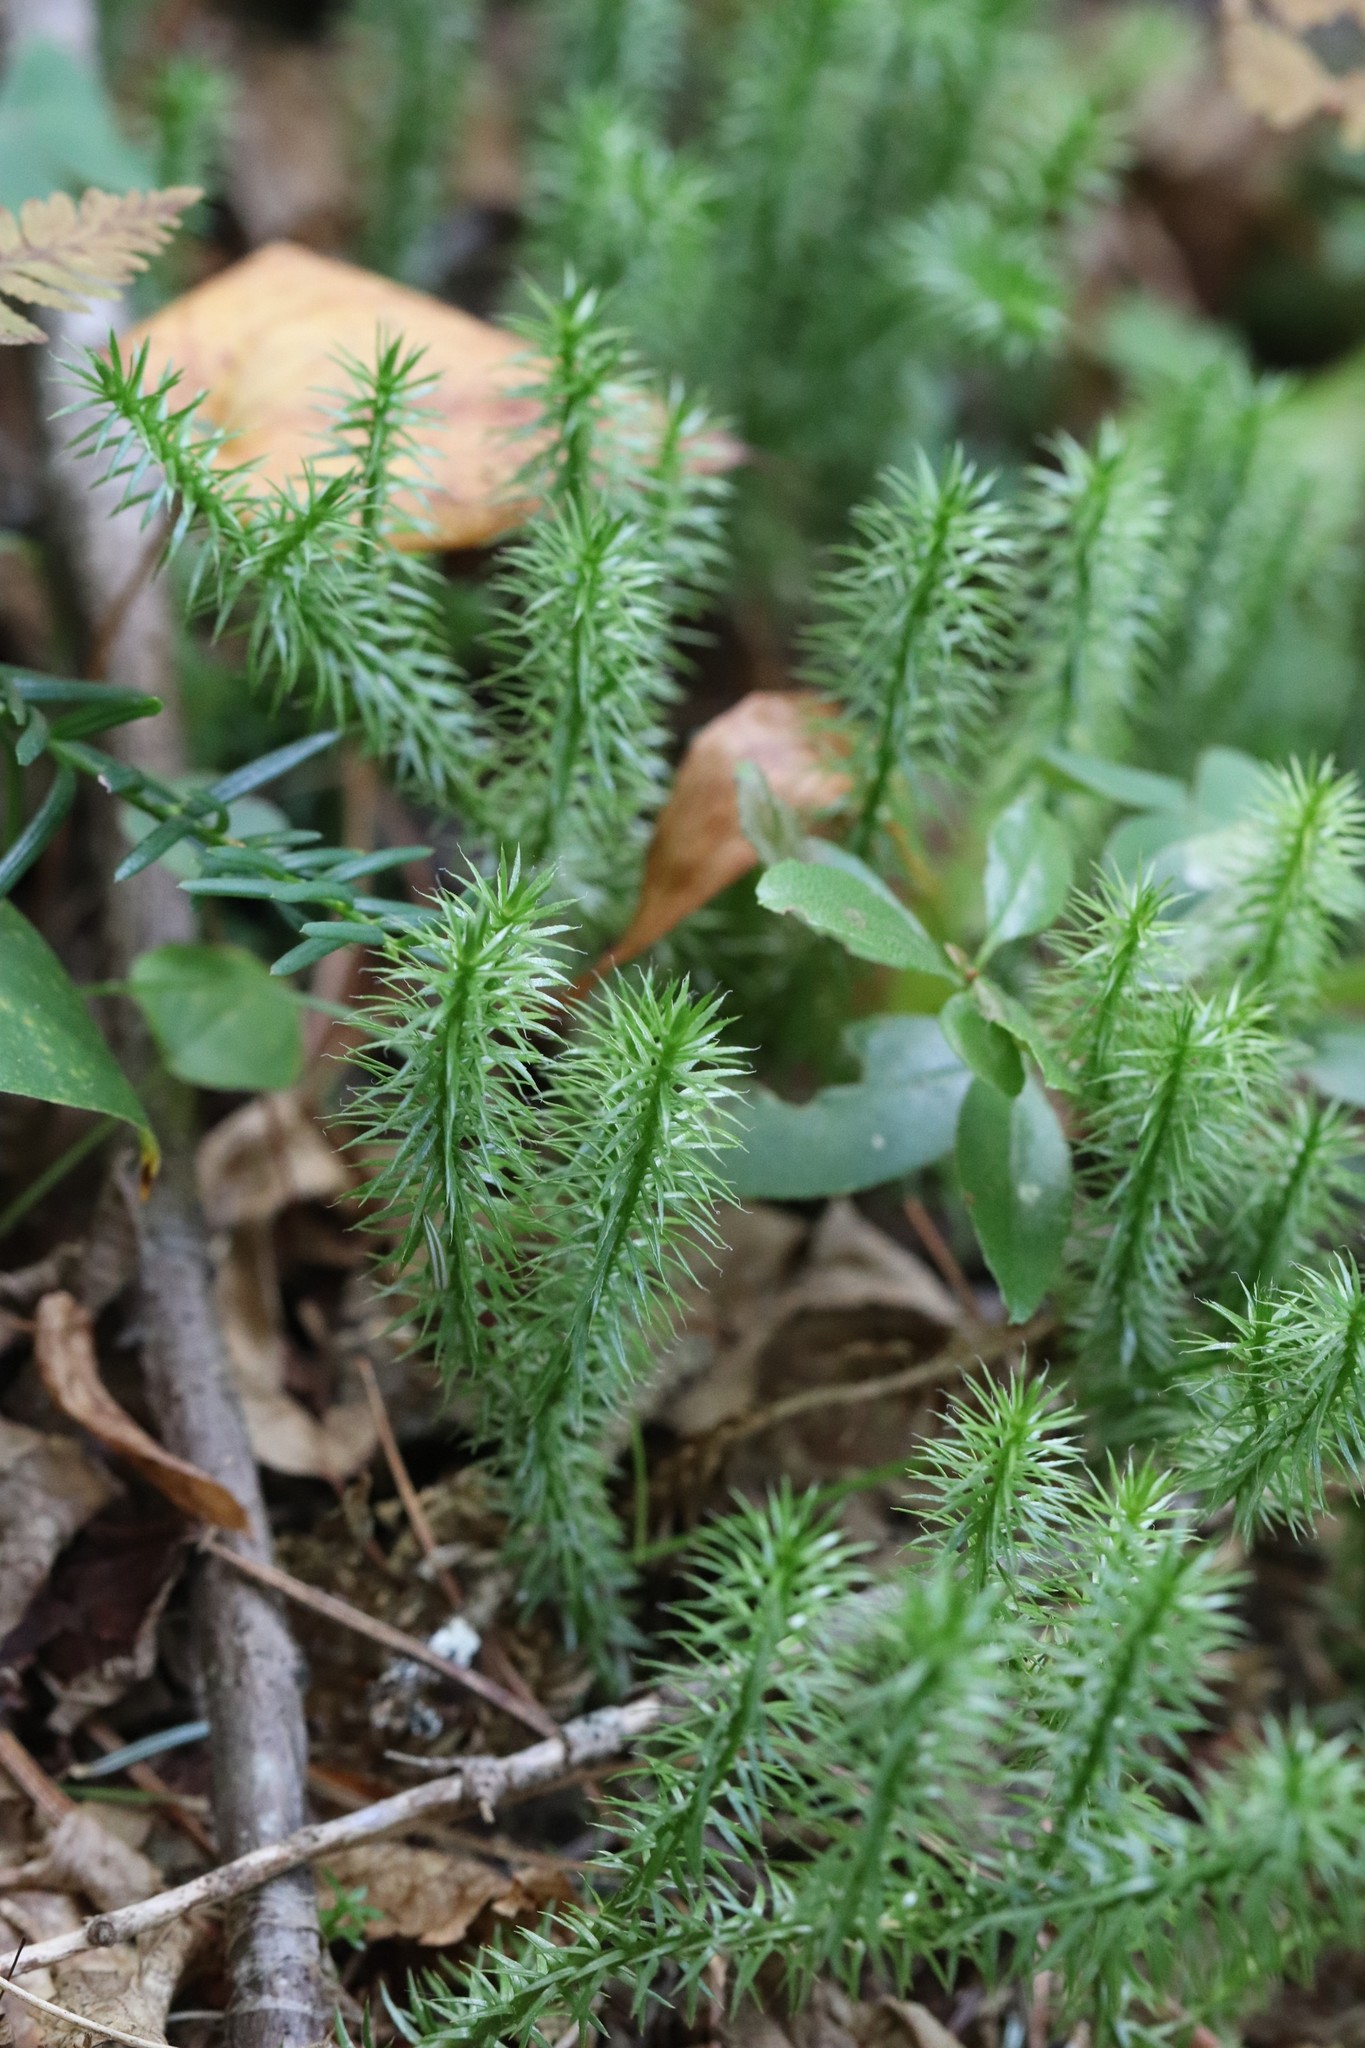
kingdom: Plantae
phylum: Tracheophyta
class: Lycopodiopsida
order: Lycopodiales
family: Lycopodiaceae
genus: Spinulum
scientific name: Spinulum annotinum
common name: Interrupted club-moss
